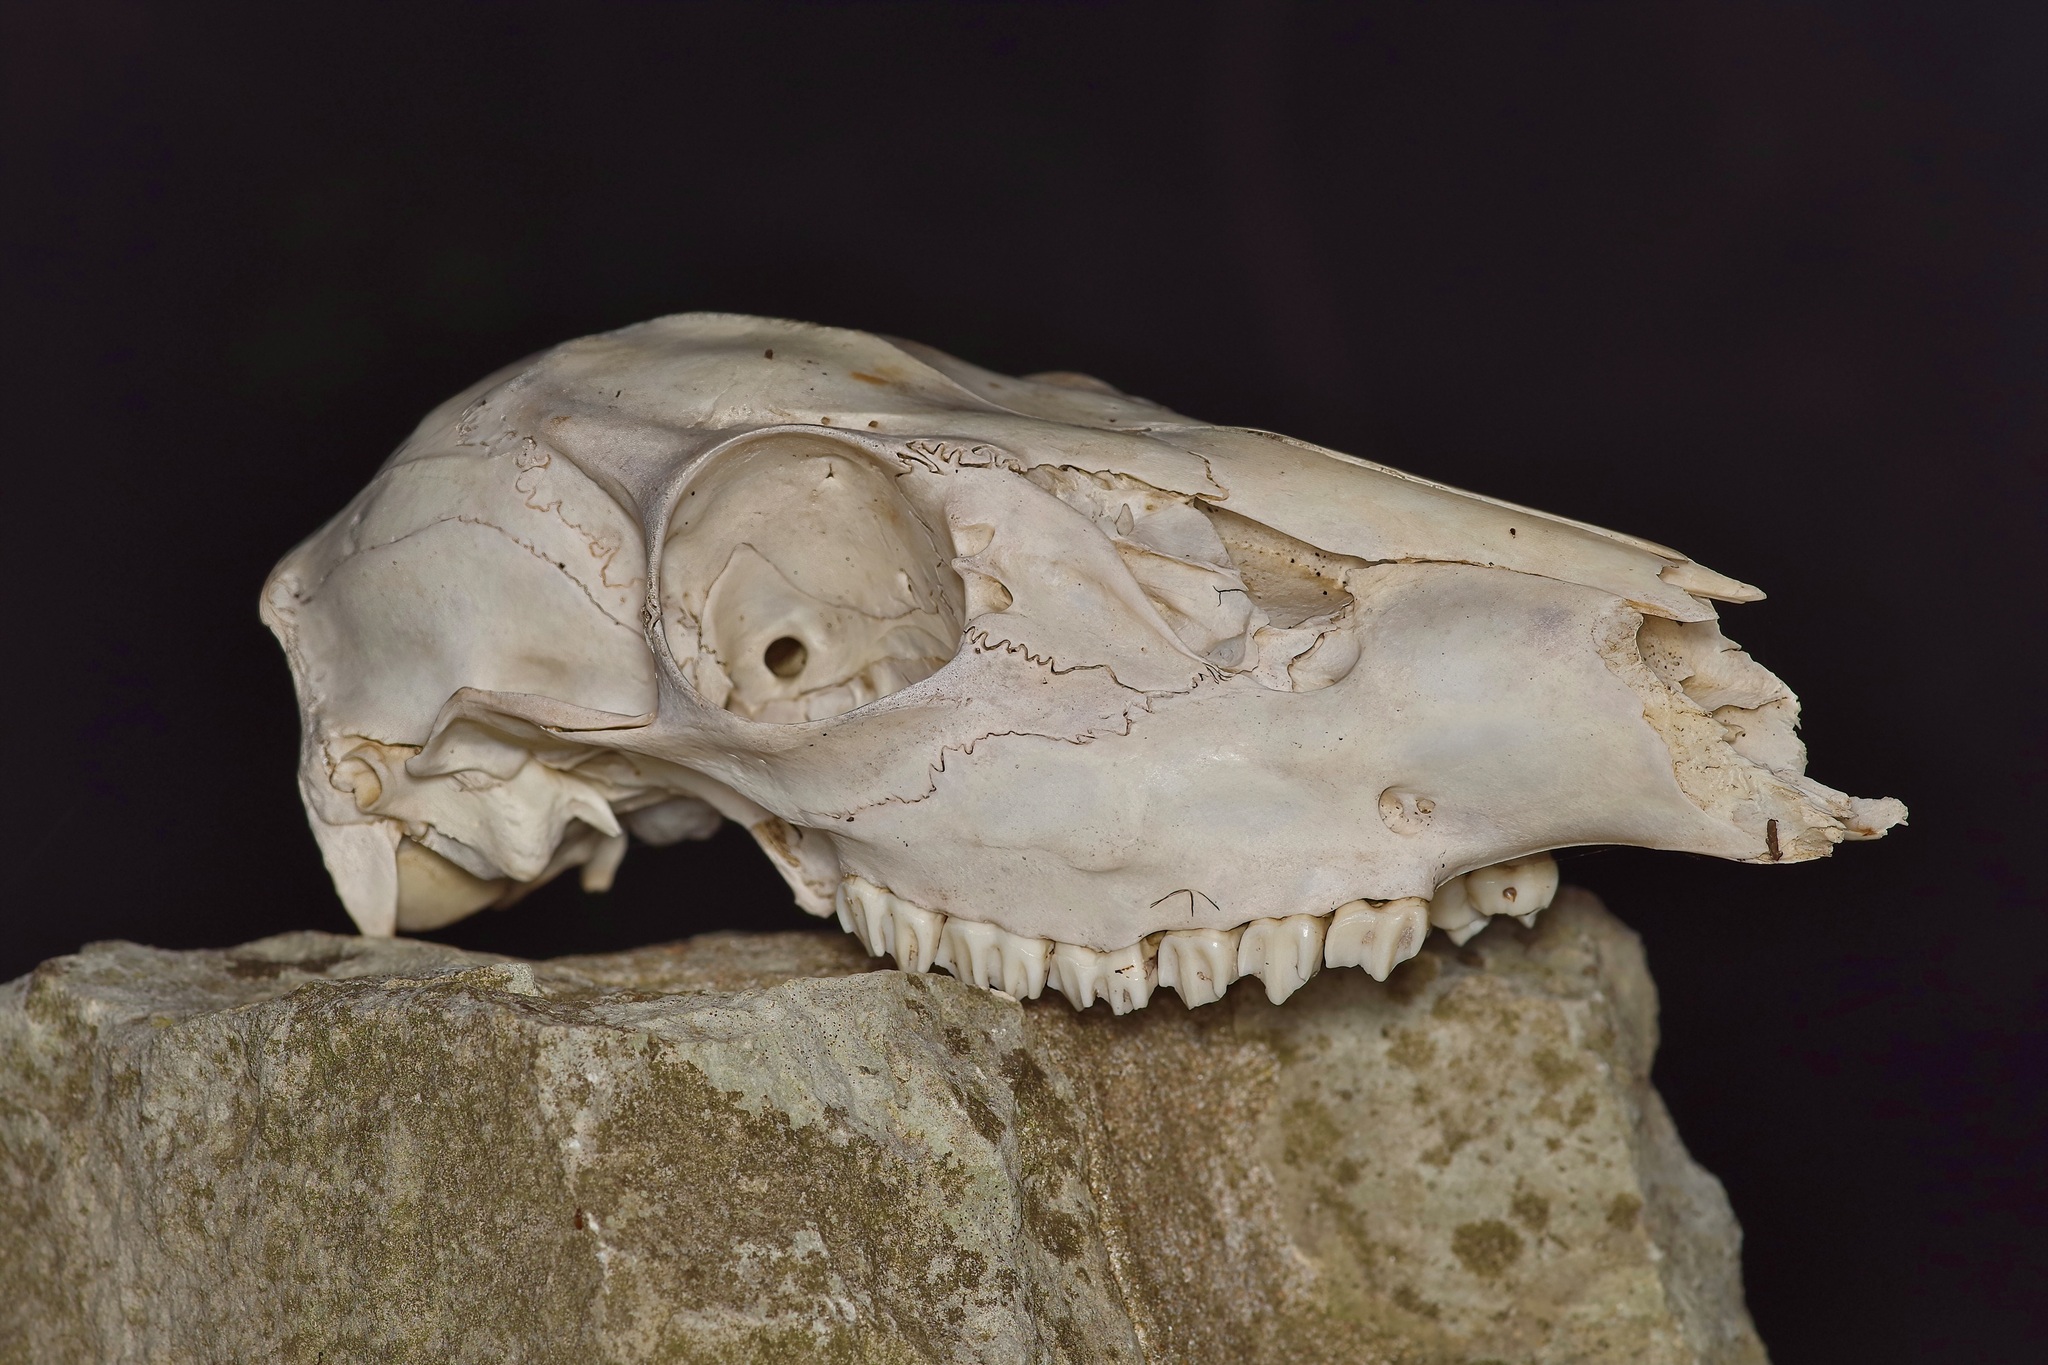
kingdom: Animalia
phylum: Chordata
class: Mammalia
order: Artiodactyla
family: Cervidae
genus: Odocoileus
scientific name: Odocoileus virginianus
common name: White-tailed deer
